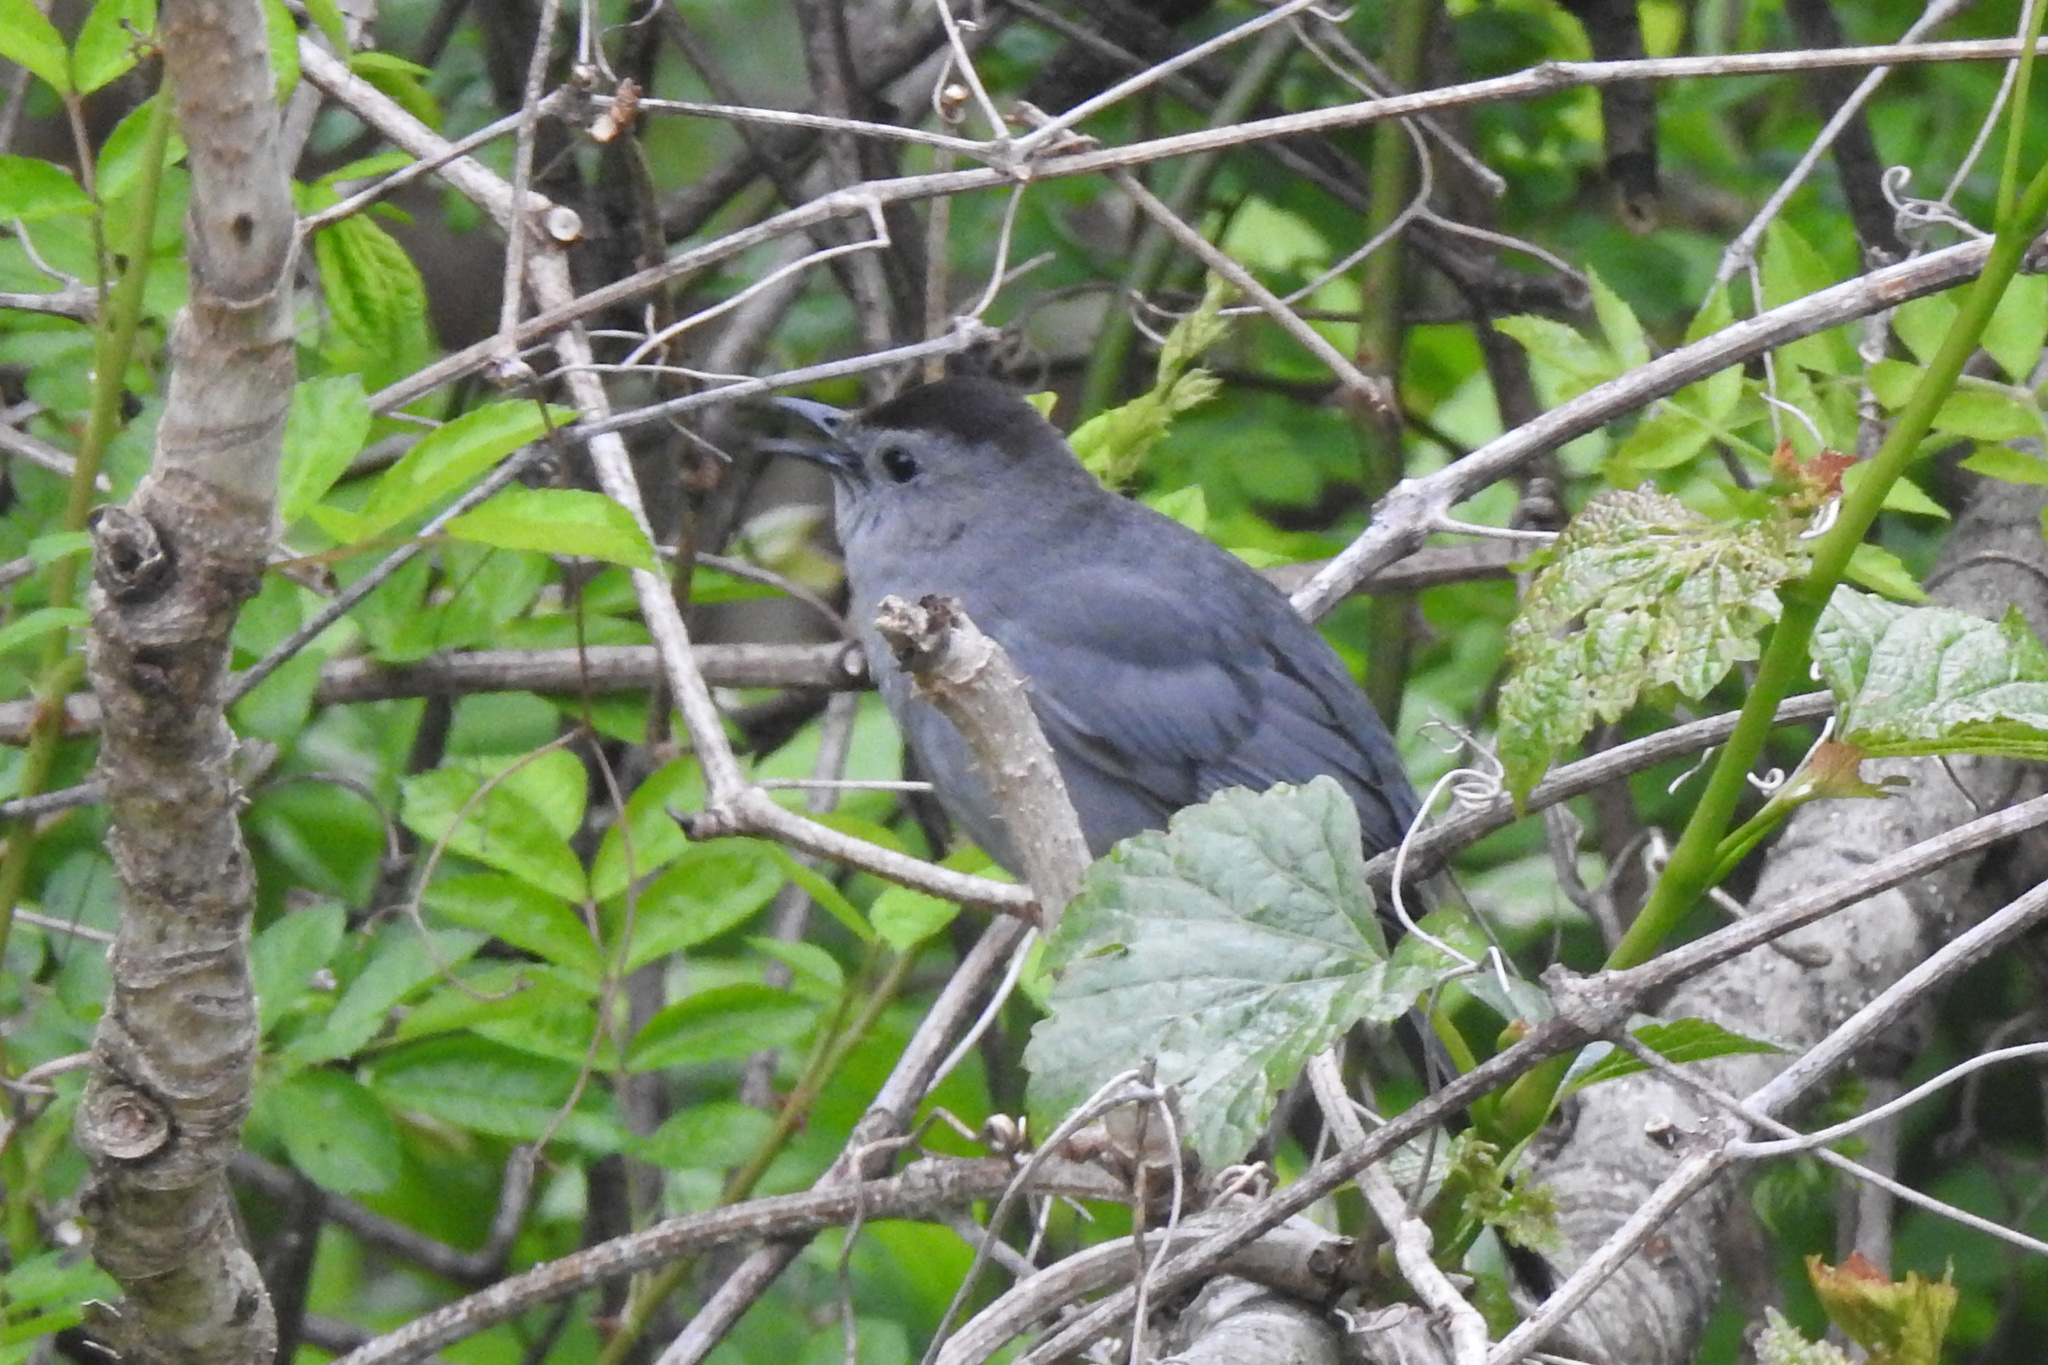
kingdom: Animalia
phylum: Chordata
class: Aves
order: Passeriformes
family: Mimidae
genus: Dumetella
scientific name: Dumetella carolinensis
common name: Gray catbird
